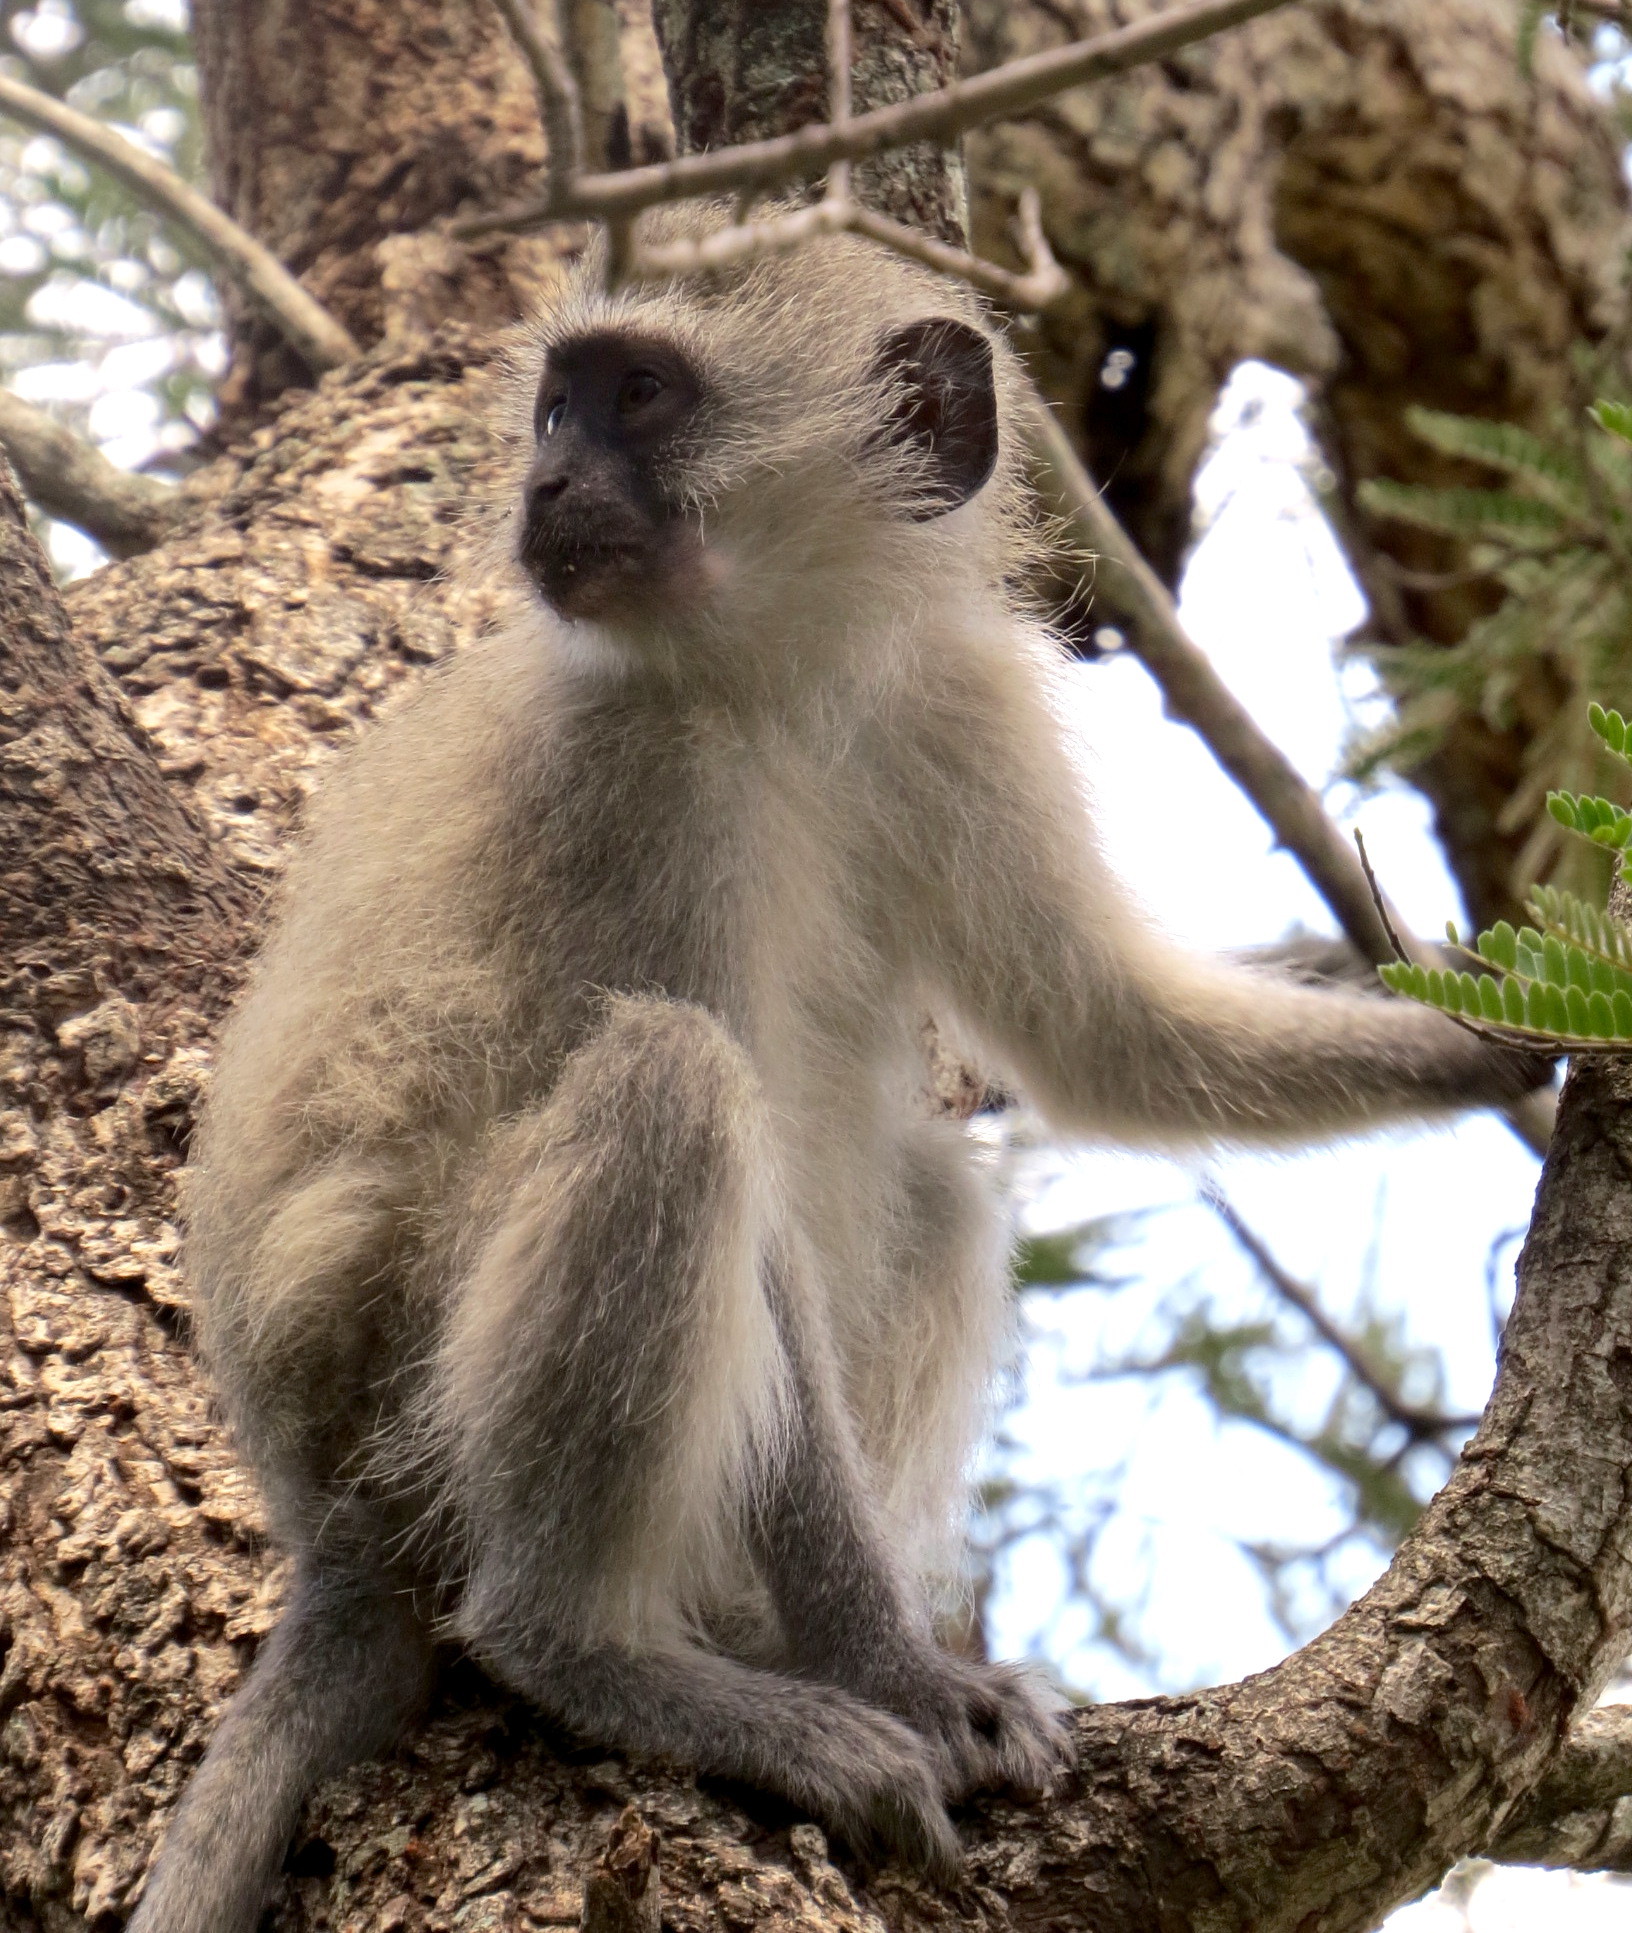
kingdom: Animalia
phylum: Chordata
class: Mammalia
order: Primates
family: Cercopithecidae
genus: Chlorocebus
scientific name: Chlorocebus pygerythrus
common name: Vervet monkey
